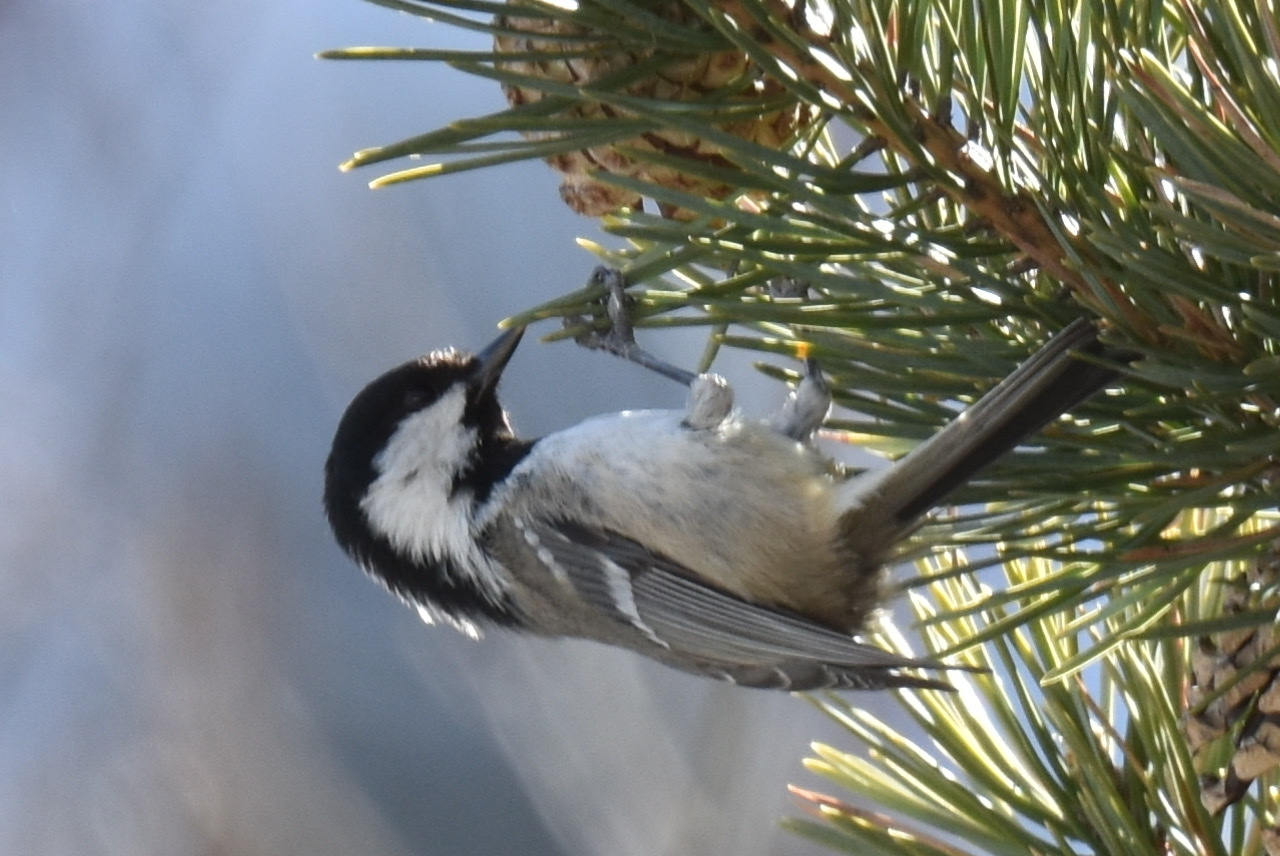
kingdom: Animalia
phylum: Chordata
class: Aves
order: Passeriformes
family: Paridae
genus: Periparus
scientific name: Periparus ater
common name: Coal tit
